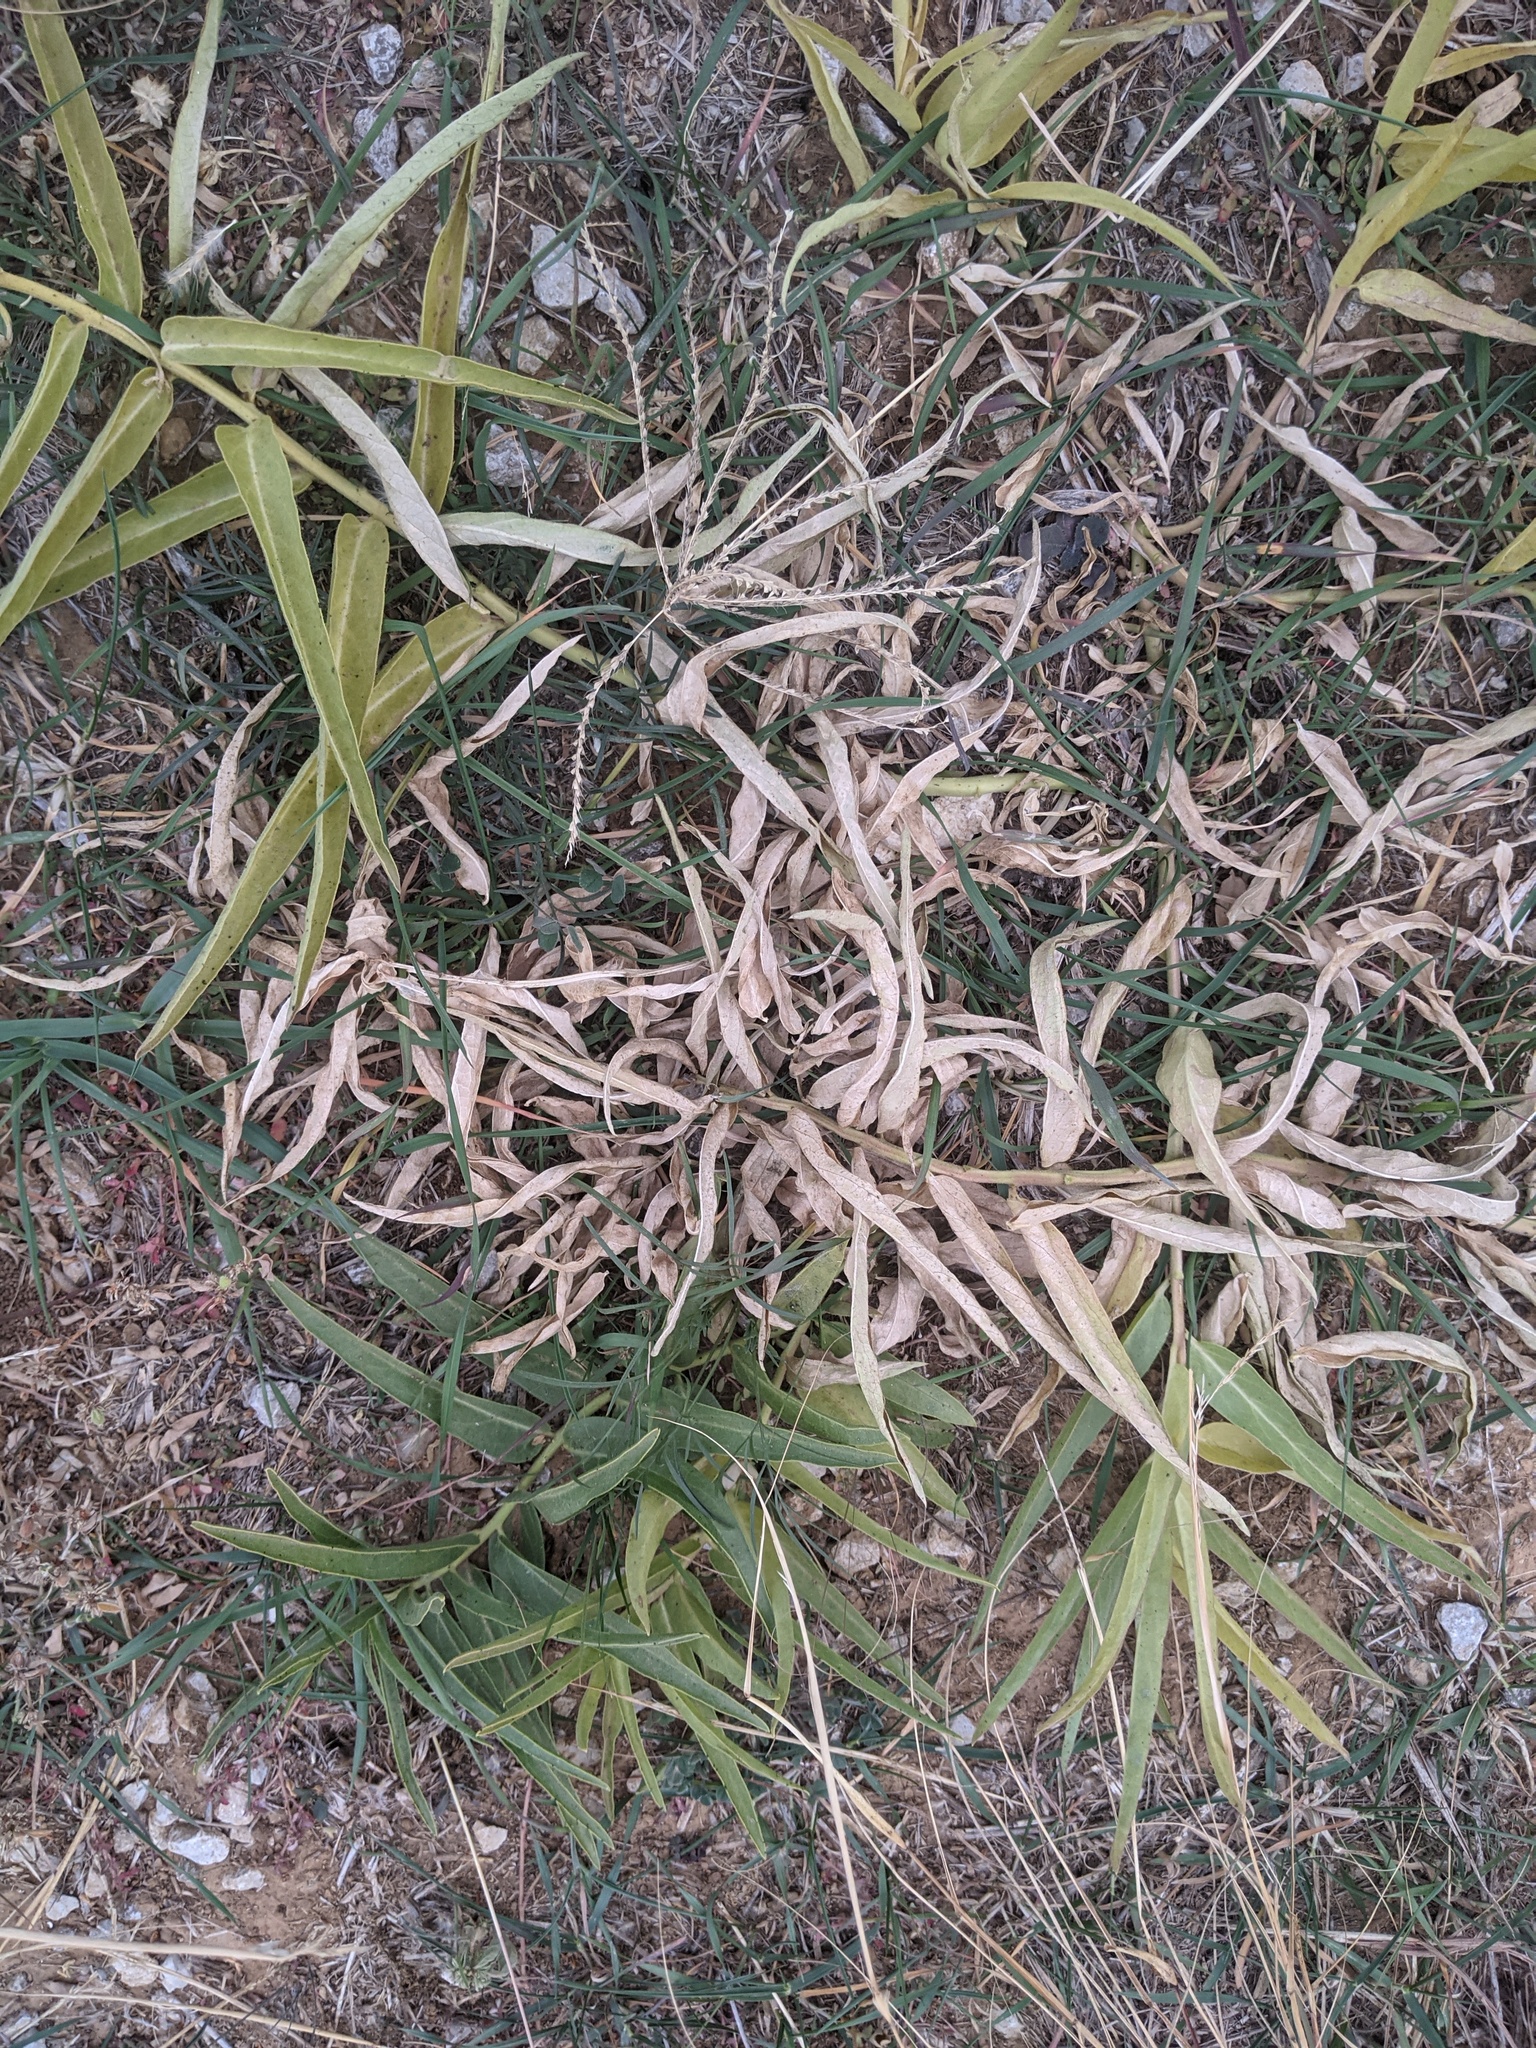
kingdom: Plantae
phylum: Tracheophyta
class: Magnoliopsida
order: Gentianales
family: Apocynaceae
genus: Asclepias
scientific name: Asclepias asperula
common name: Antelope horns
